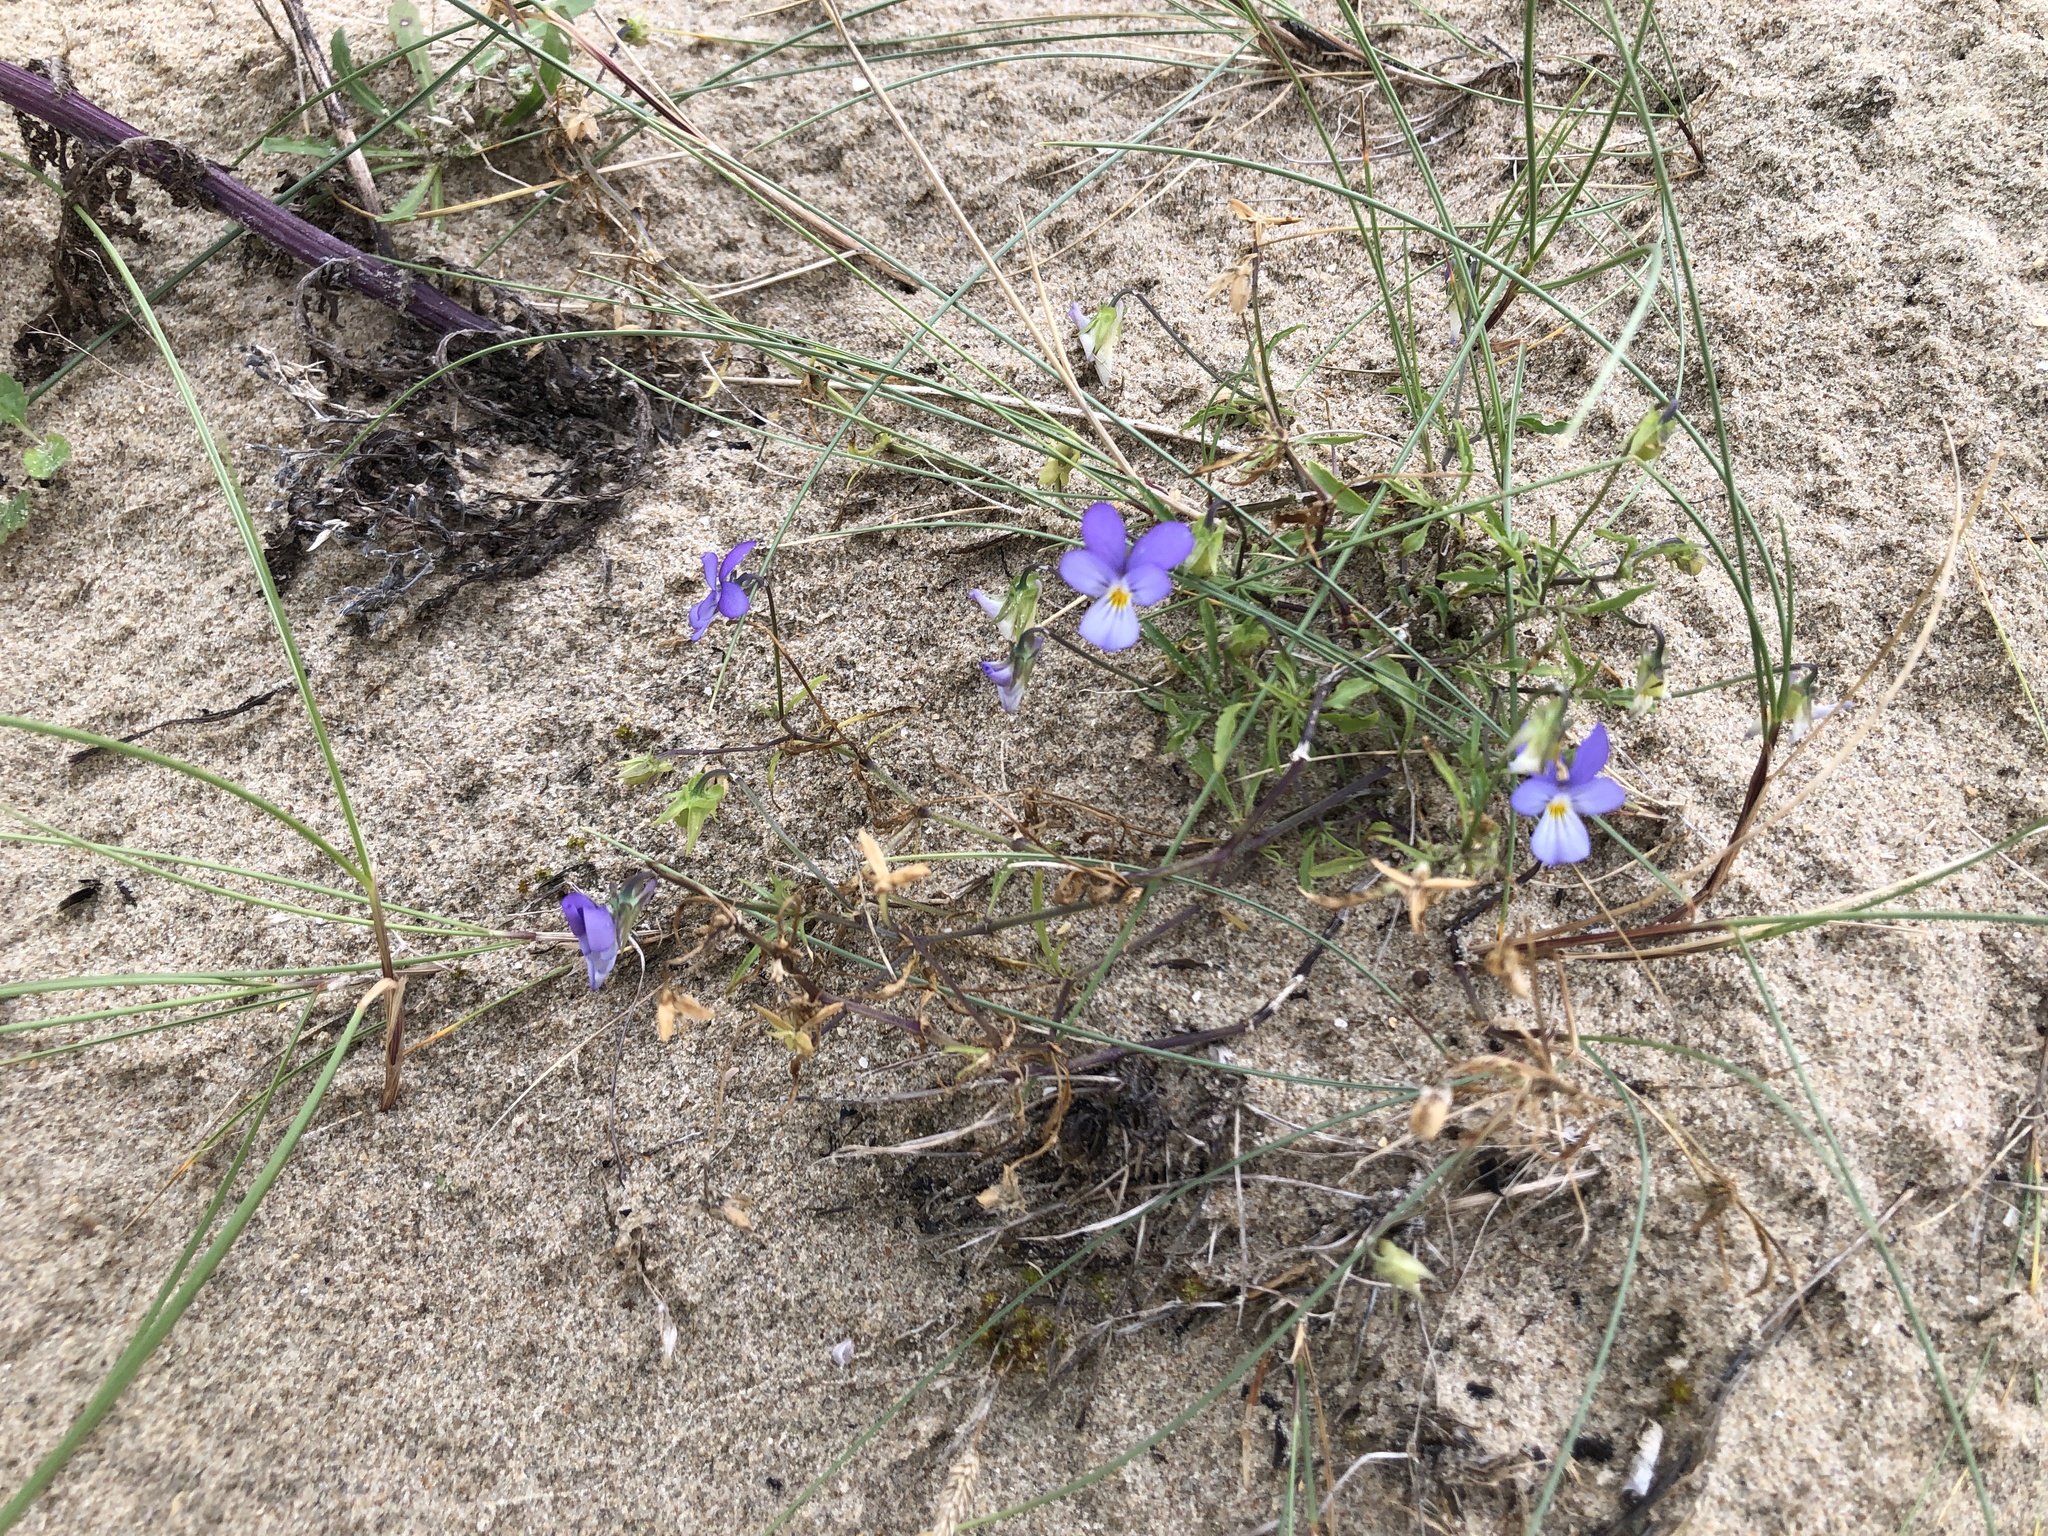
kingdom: Plantae
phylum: Tracheophyta
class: Magnoliopsida
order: Malpighiales
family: Violaceae
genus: Viola
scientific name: Viola tricolor
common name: Pansy
